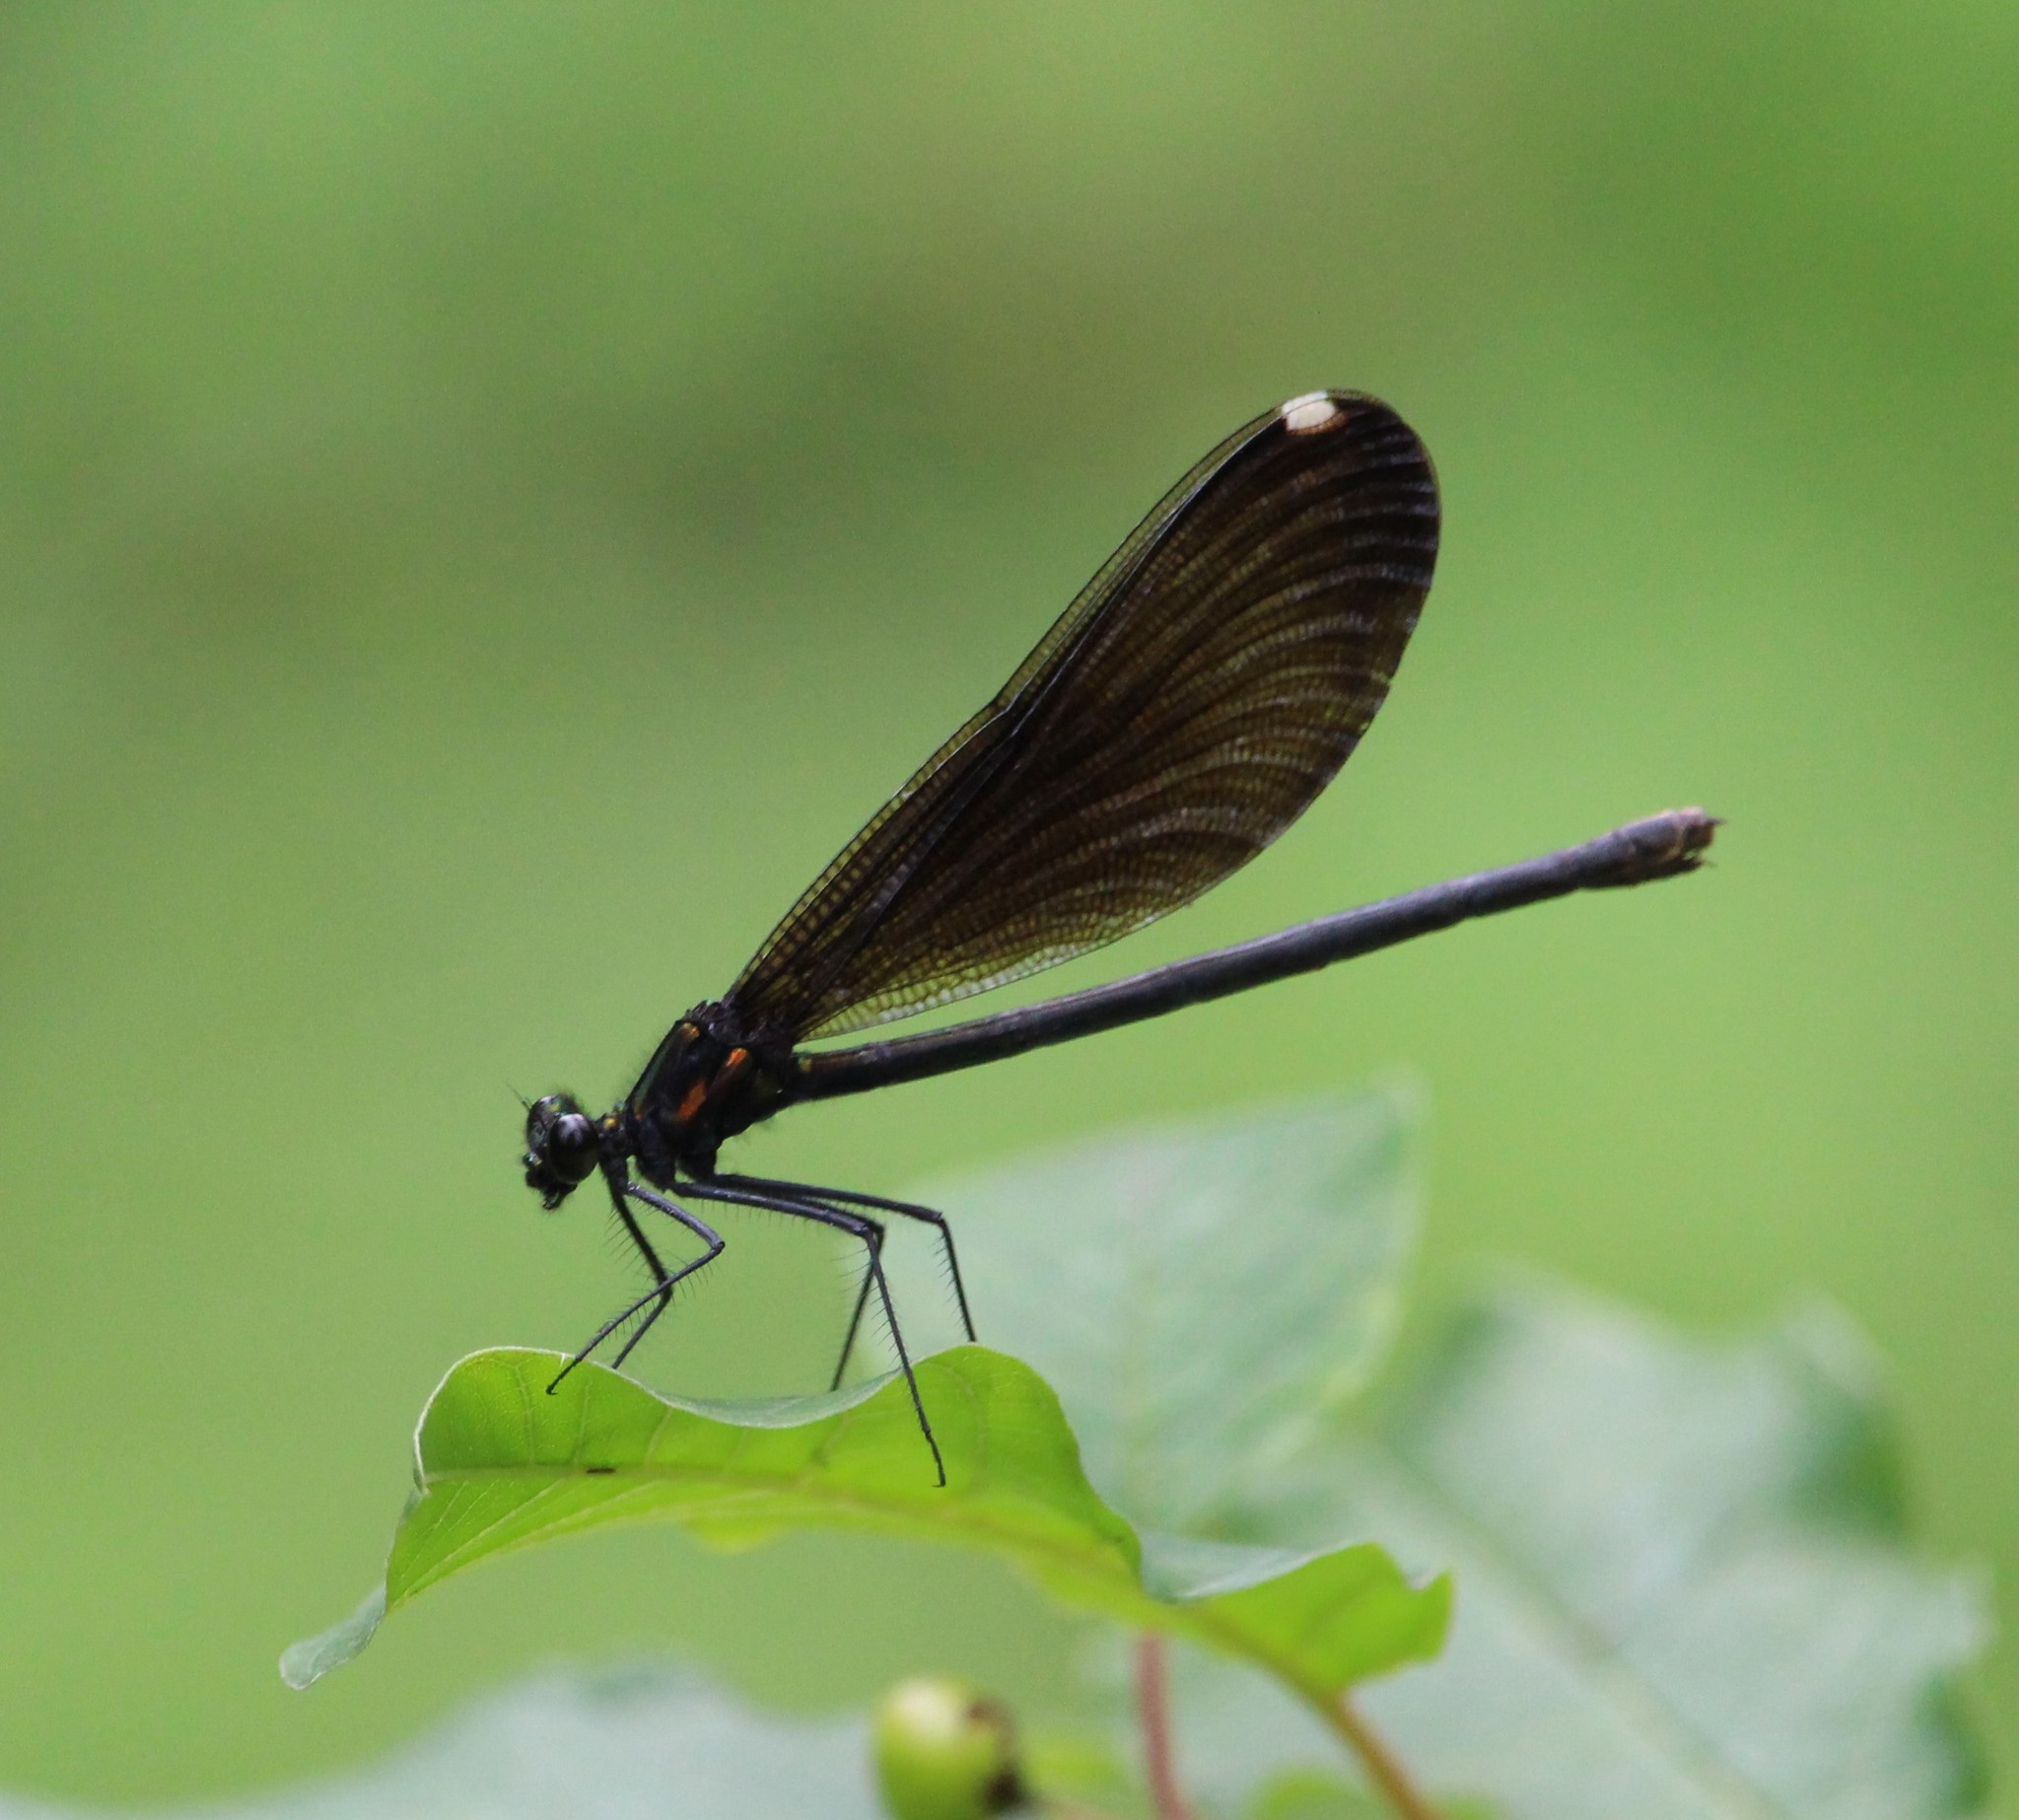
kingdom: Animalia
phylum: Arthropoda
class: Insecta
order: Odonata
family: Calopterygidae
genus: Calopteryx
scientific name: Calopteryx maculata
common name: Ebony jewelwing
